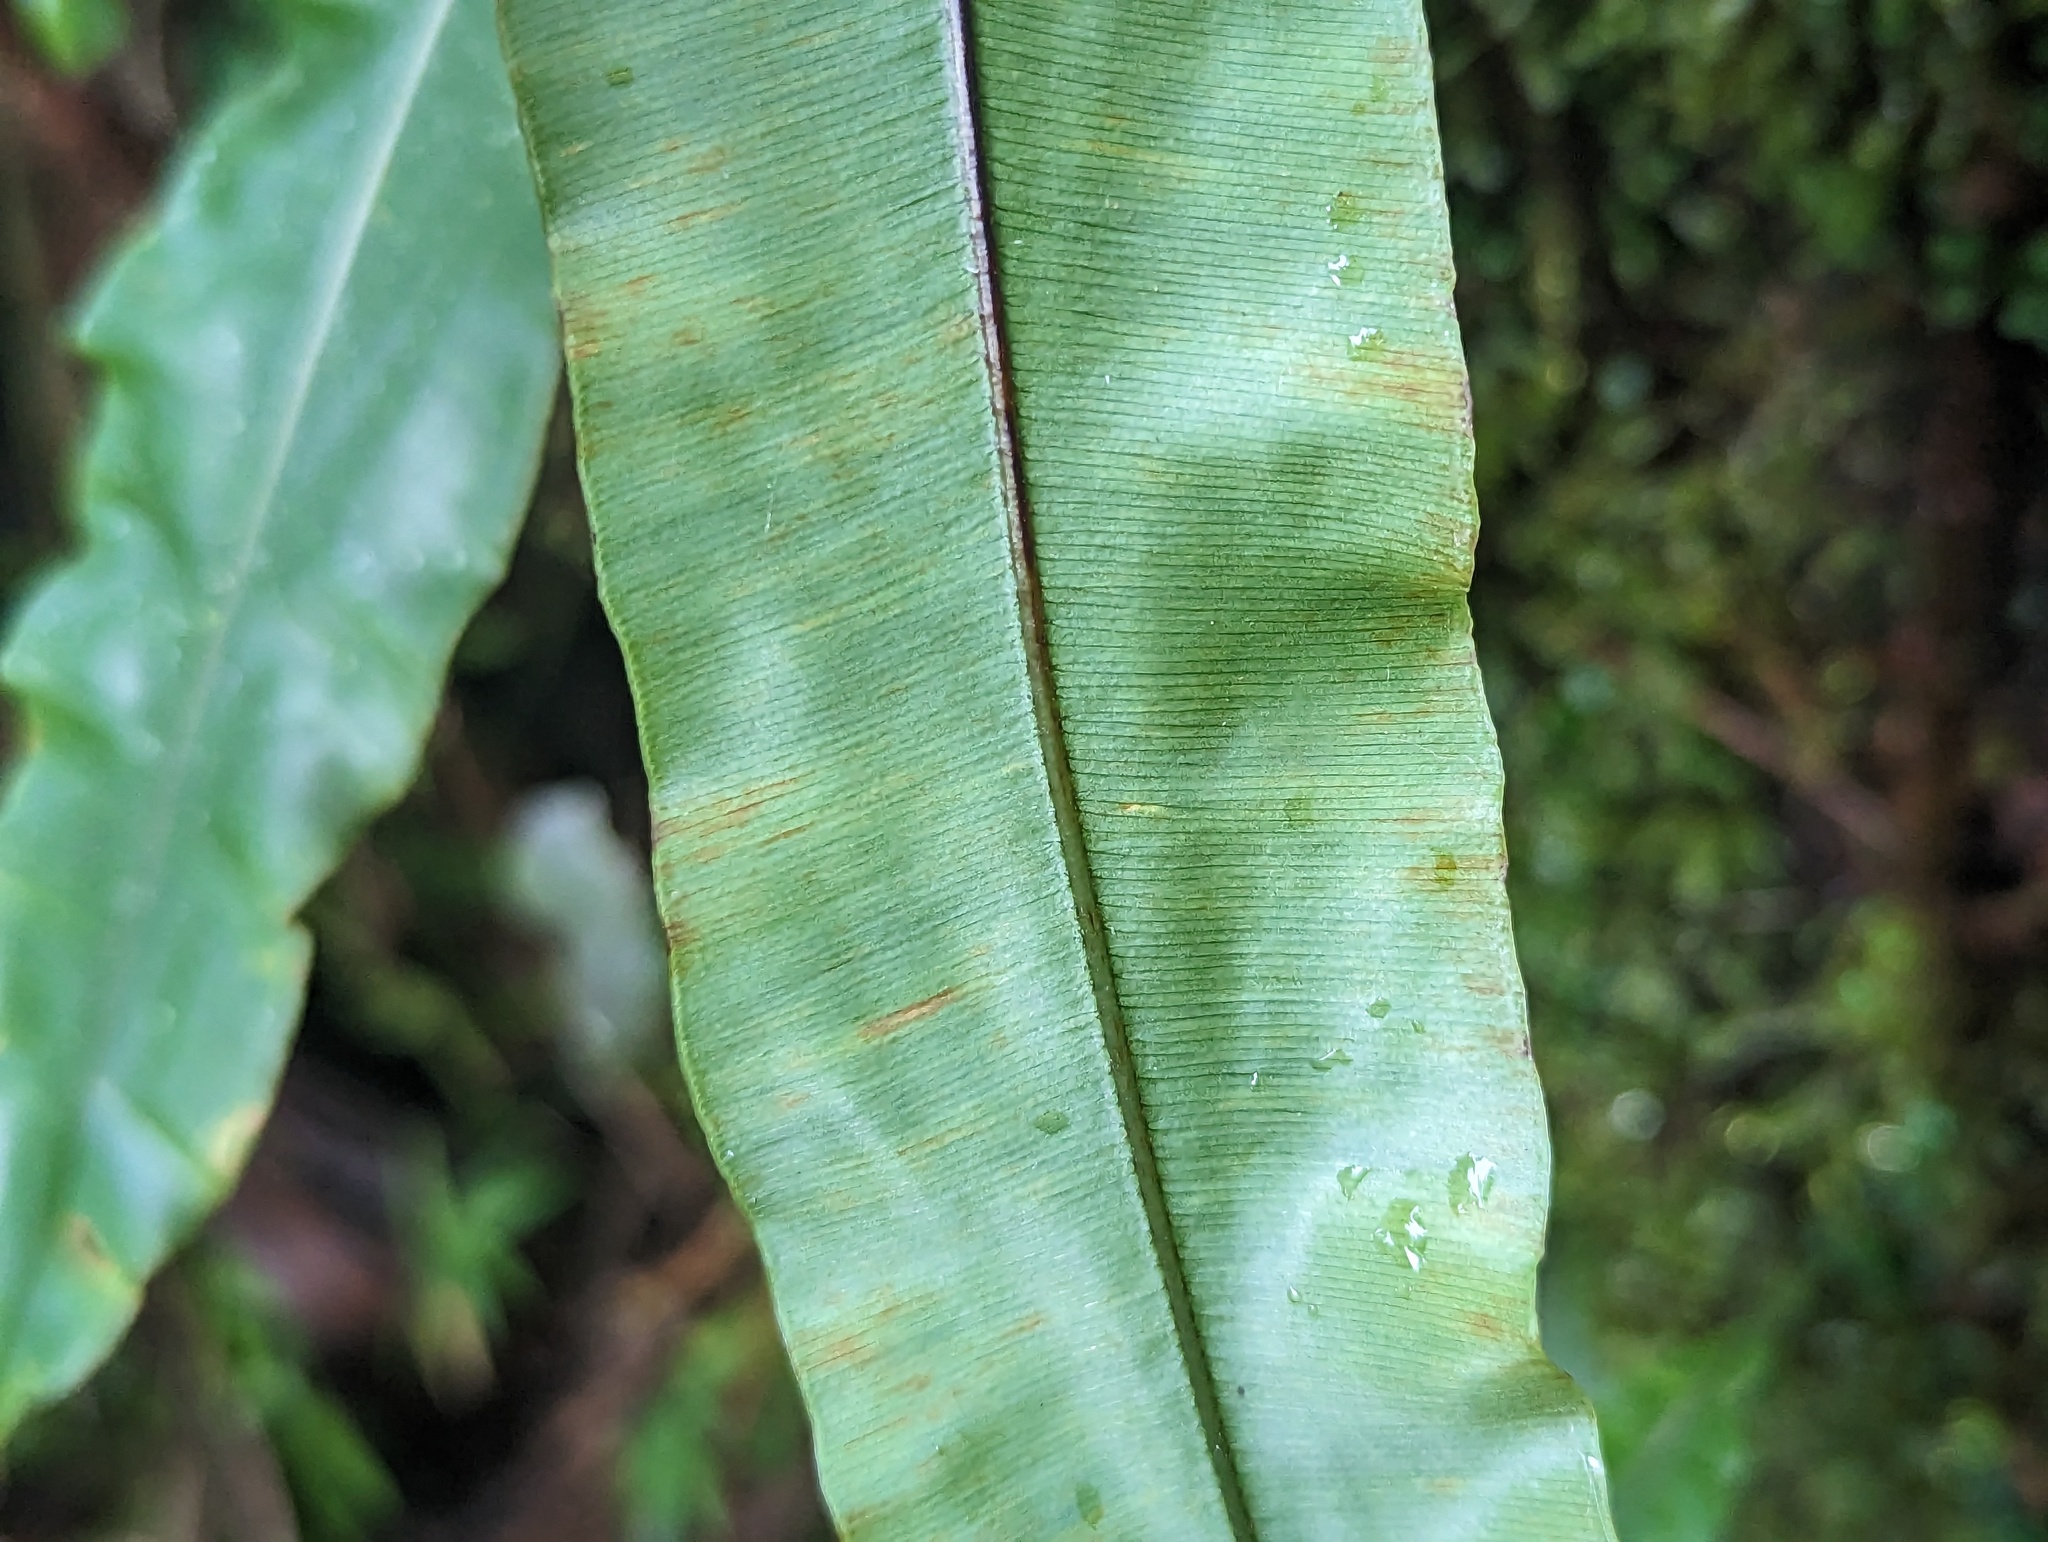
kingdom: Plantae
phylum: Tracheophyta
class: Polypodiopsida
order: Polypodiales
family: Oleandraceae
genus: Oleandra
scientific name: Oleandra articulata
